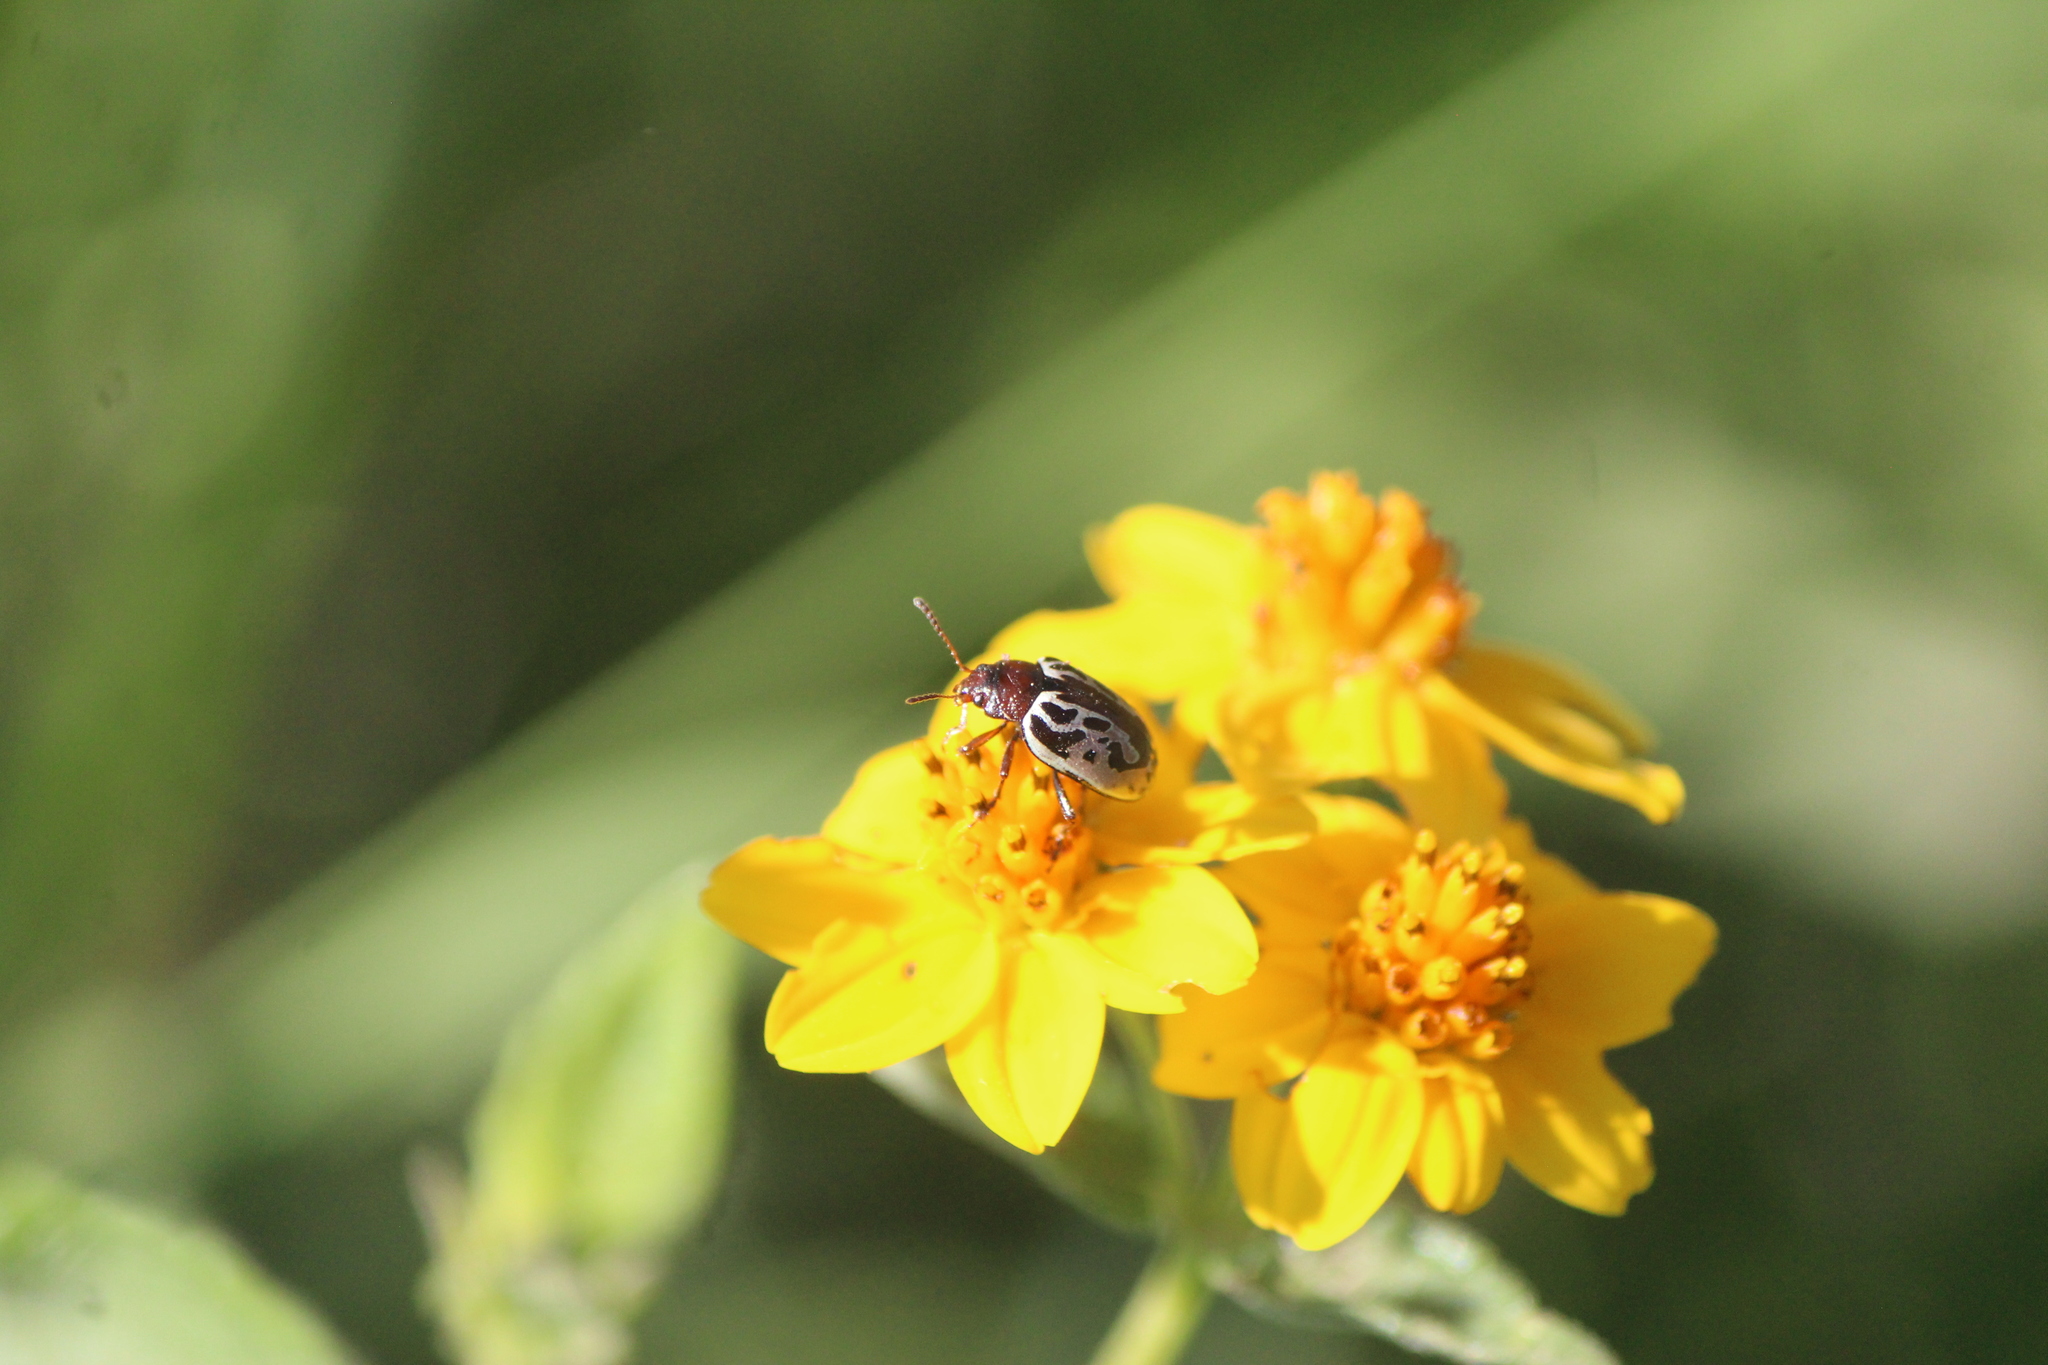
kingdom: Animalia
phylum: Arthropoda
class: Insecta
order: Coleoptera
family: Chrysomelidae
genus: Calligrapha
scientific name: Calligrapha
